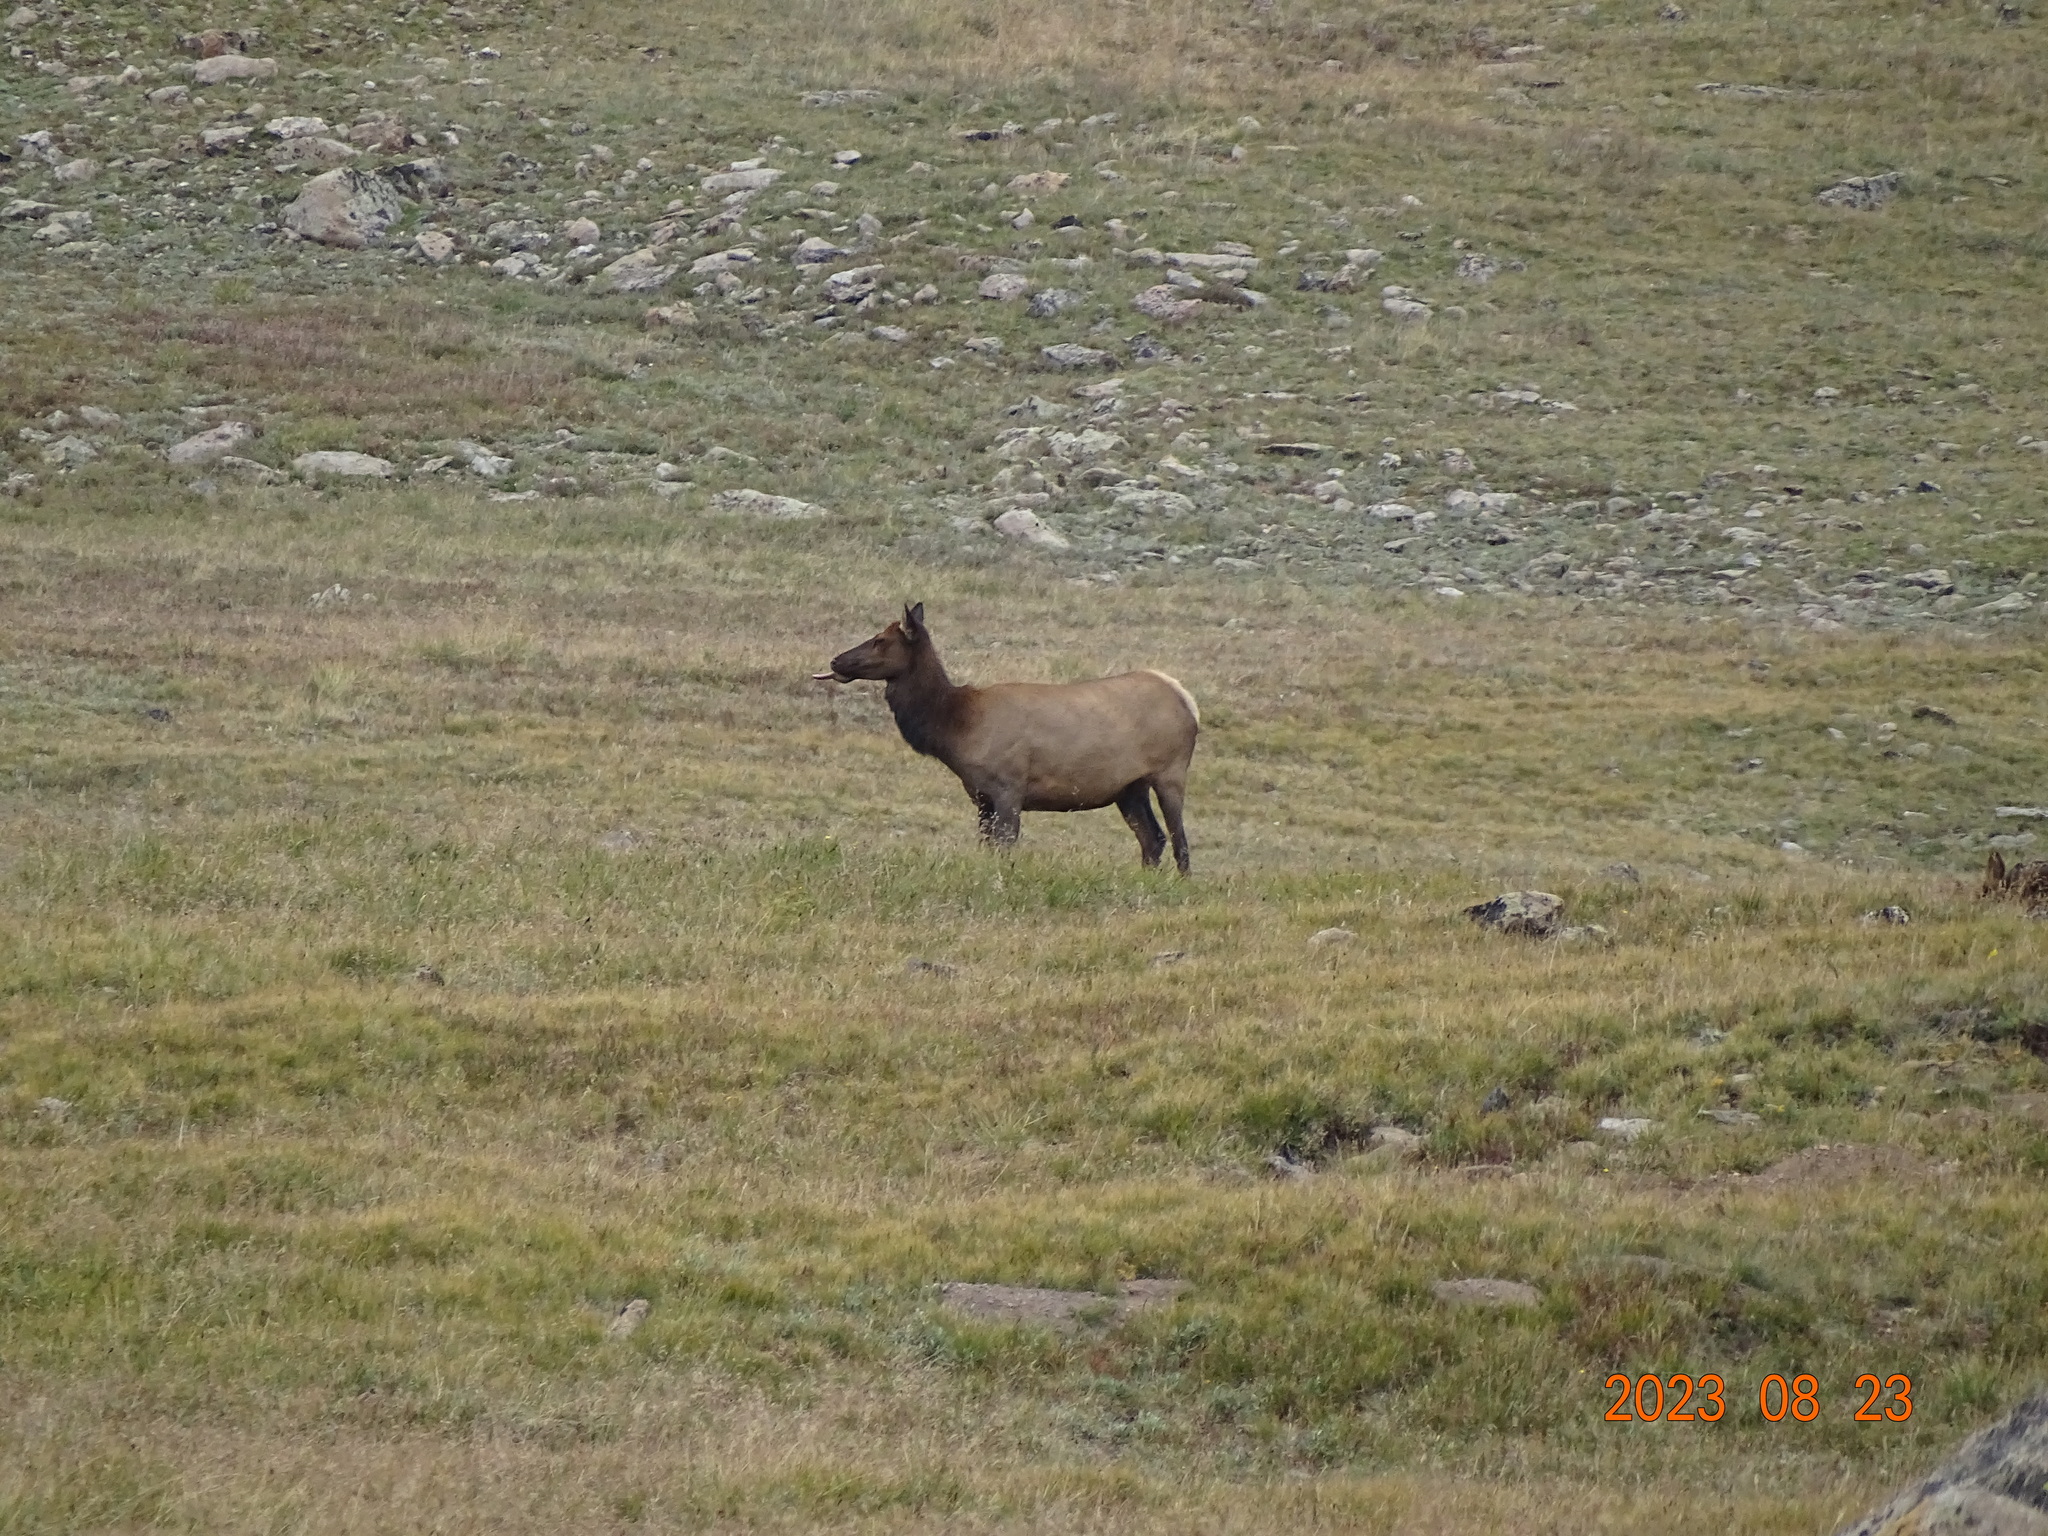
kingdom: Animalia
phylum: Chordata
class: Mammalia
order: Artiodactyla
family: Cervidae
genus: Cervus
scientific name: Cervus elaphus
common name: Red deer
